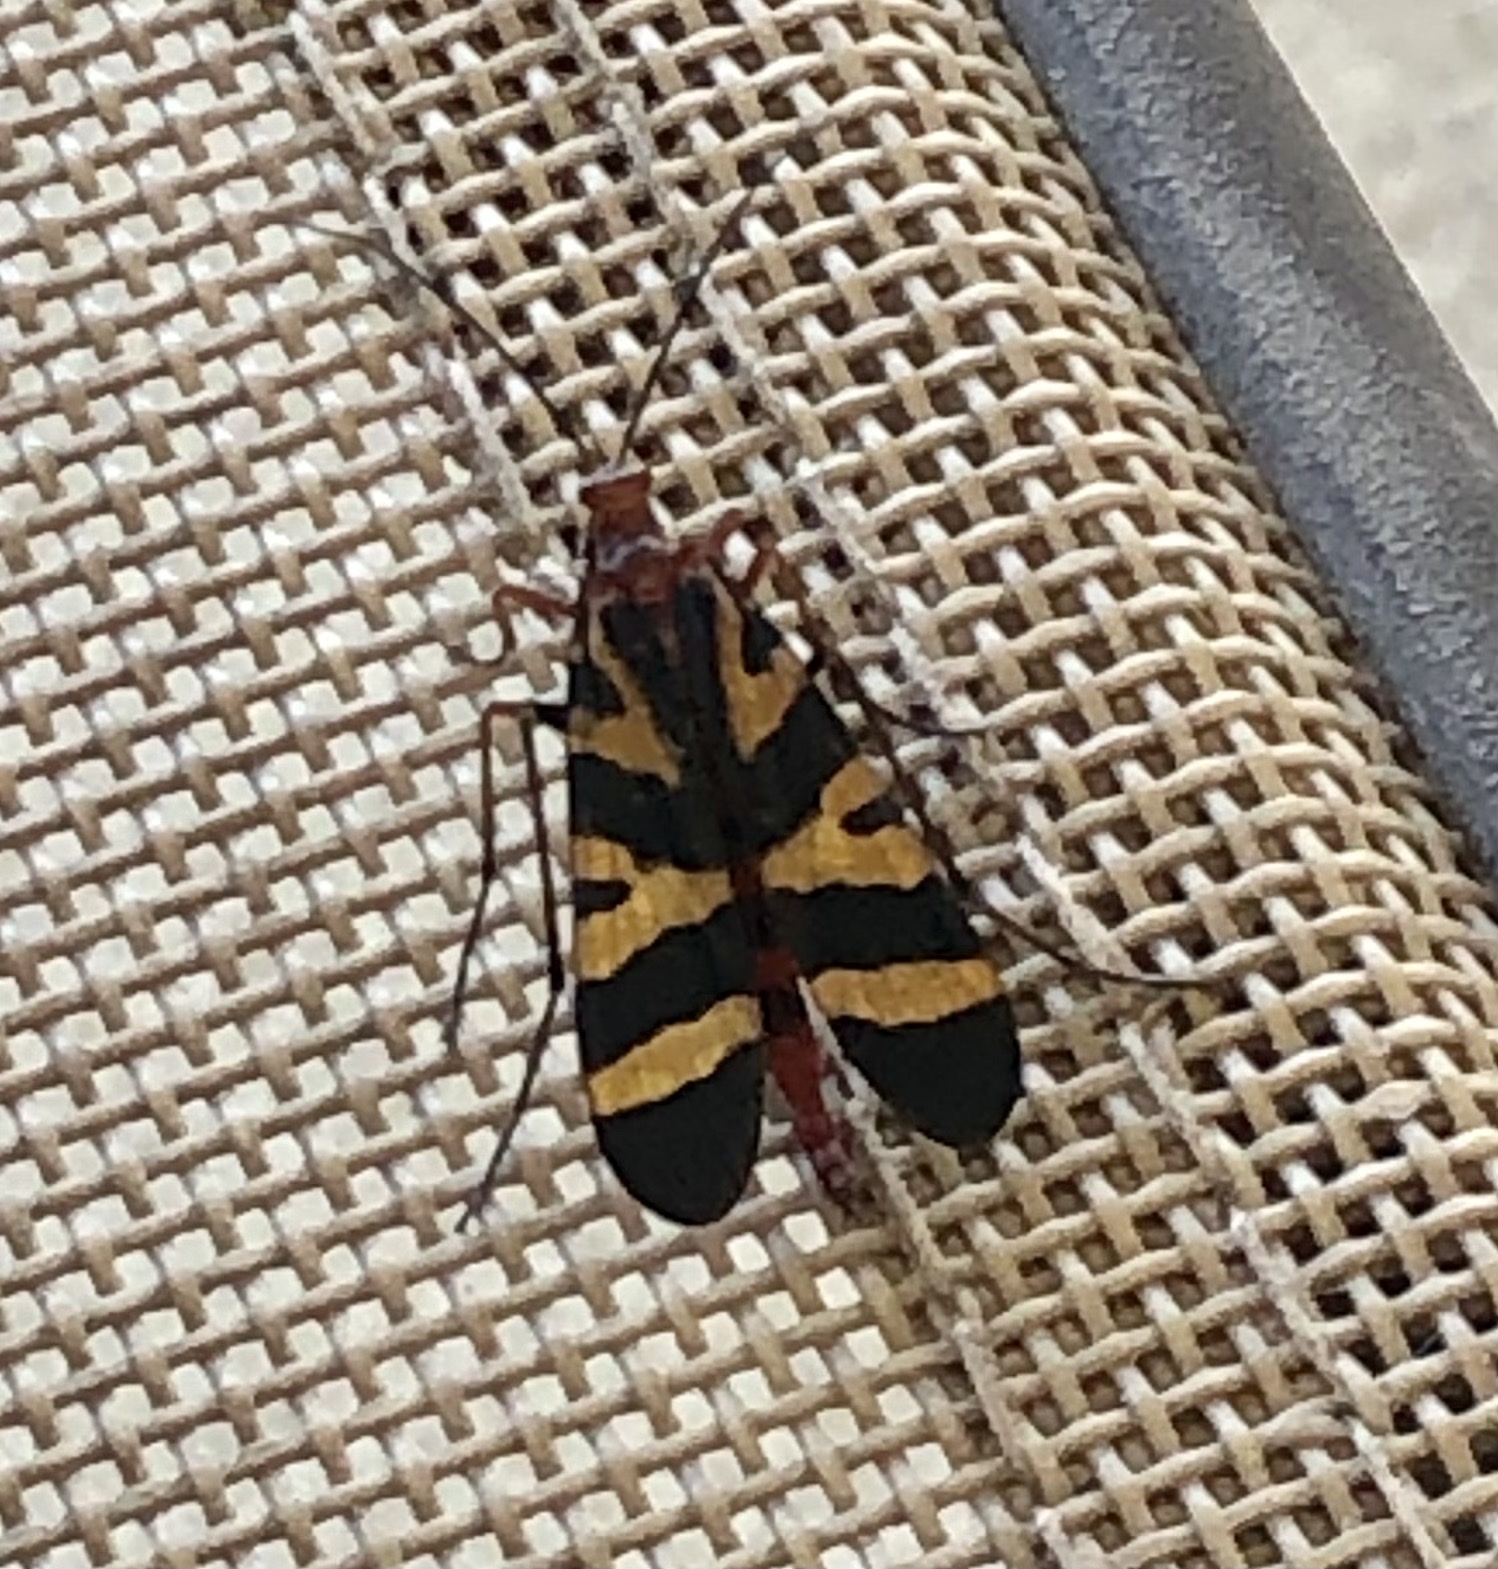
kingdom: Animalia
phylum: Arthropoda
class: Insecta
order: Mecoptera
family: Panorpidae
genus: Panorpa
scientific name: Panorpa nuptialis
